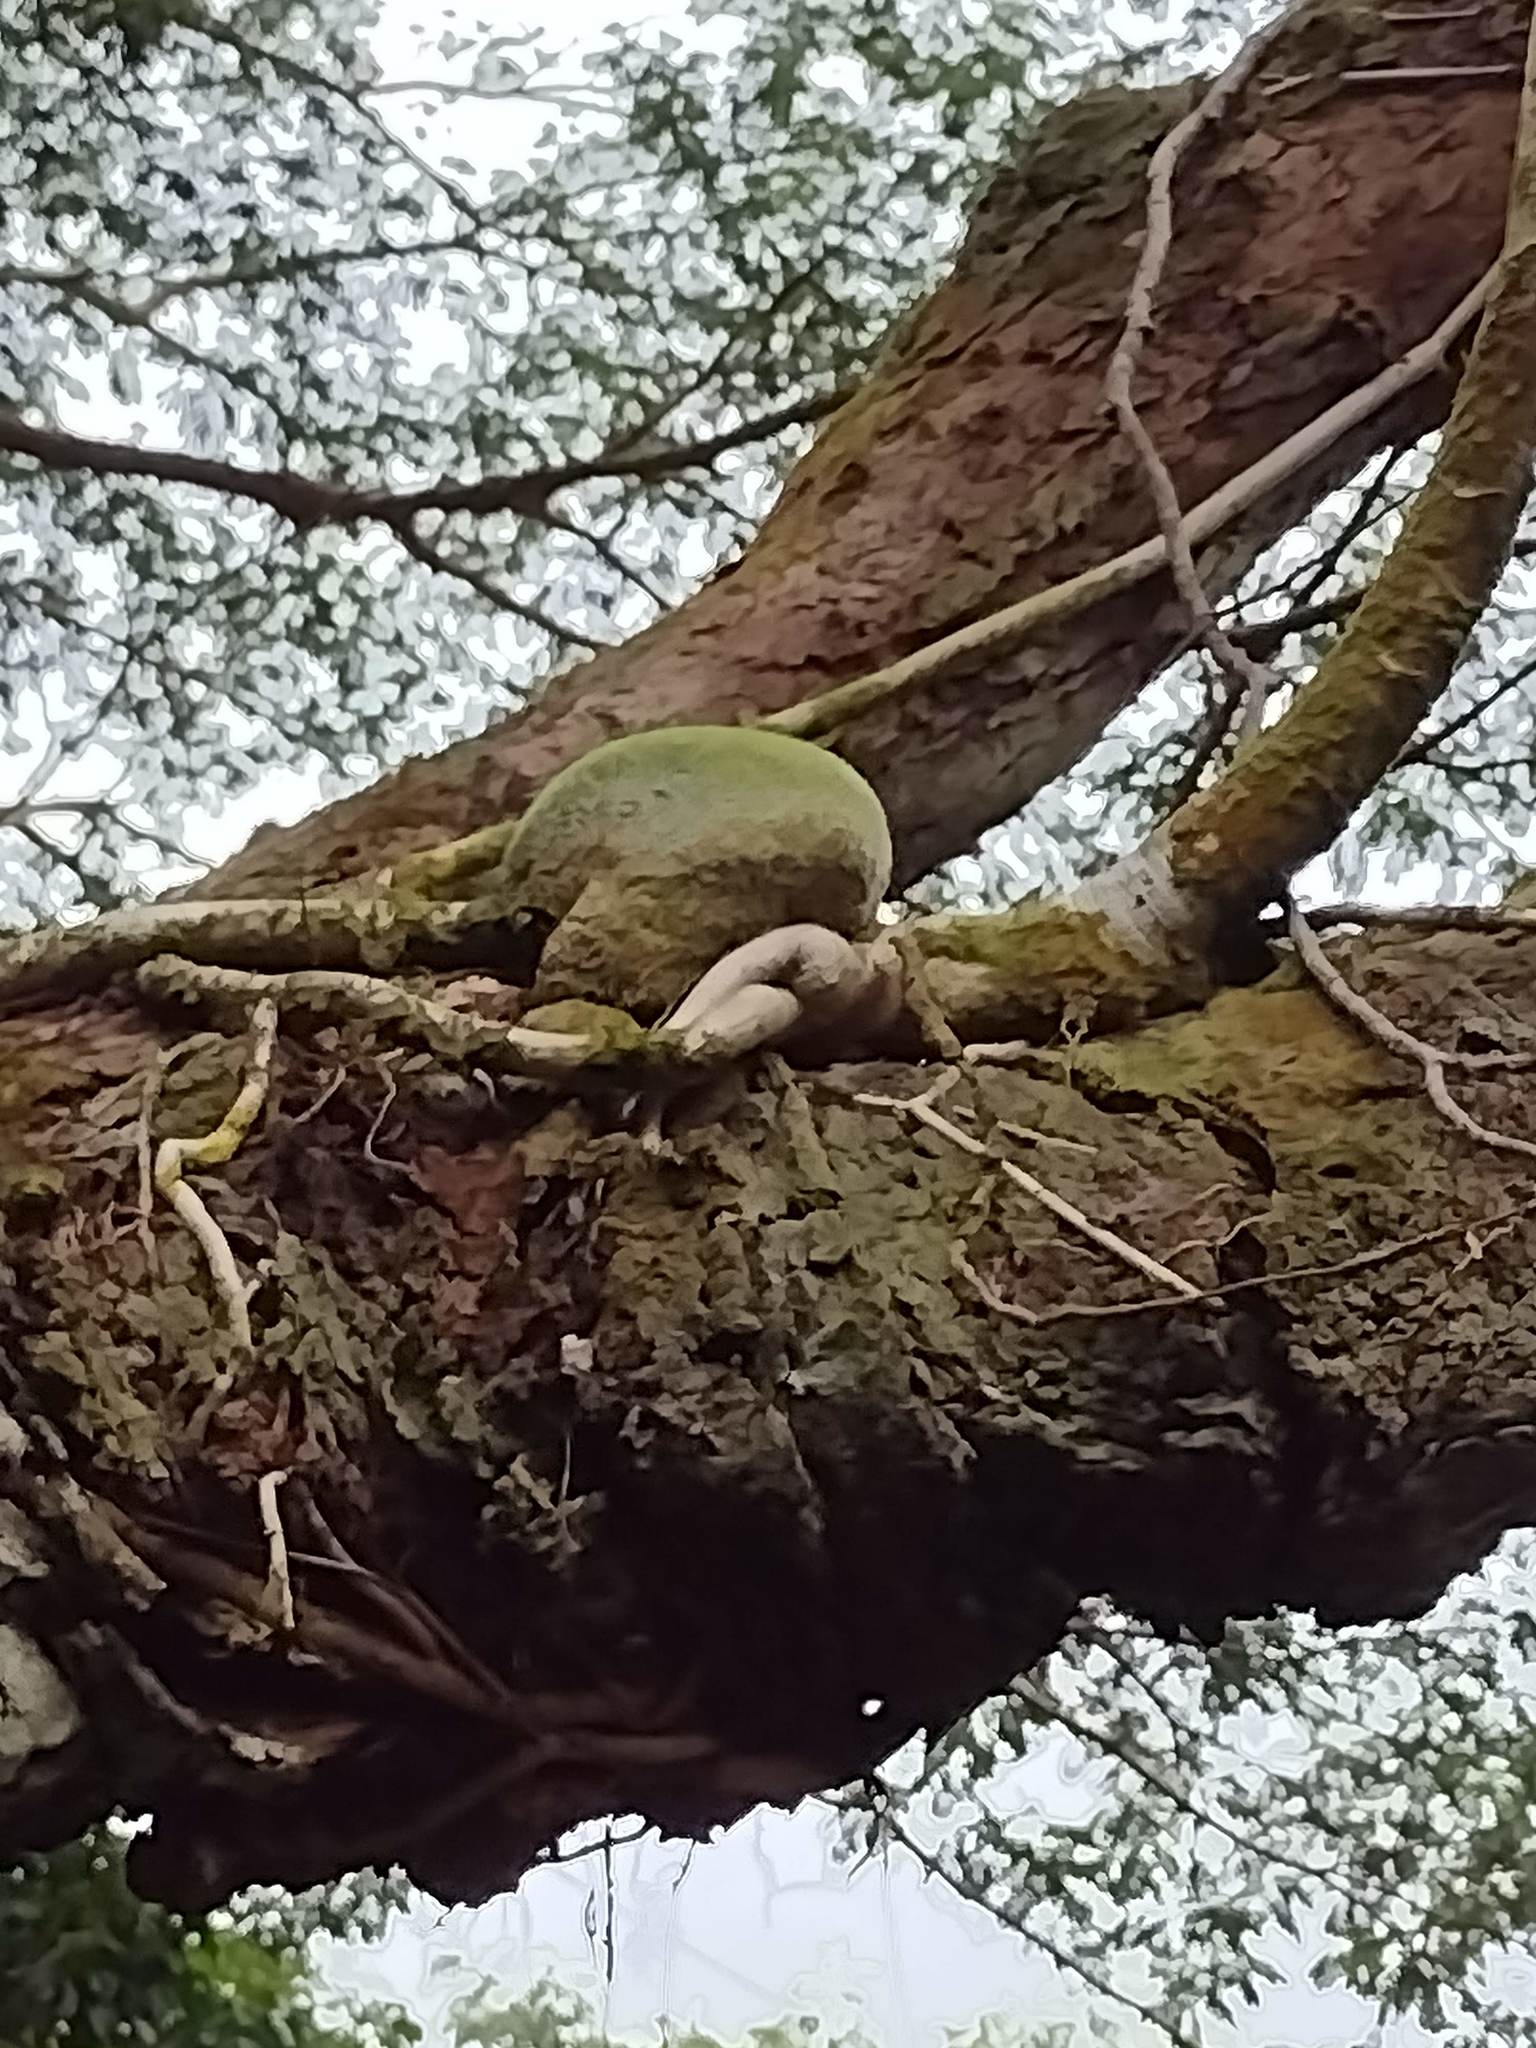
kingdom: Plantae
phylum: Tracheophyta
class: Magnoliopsida
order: Apiales
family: Araliaceae
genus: Heptapleurum
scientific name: Heptapleurum actinophyllum
